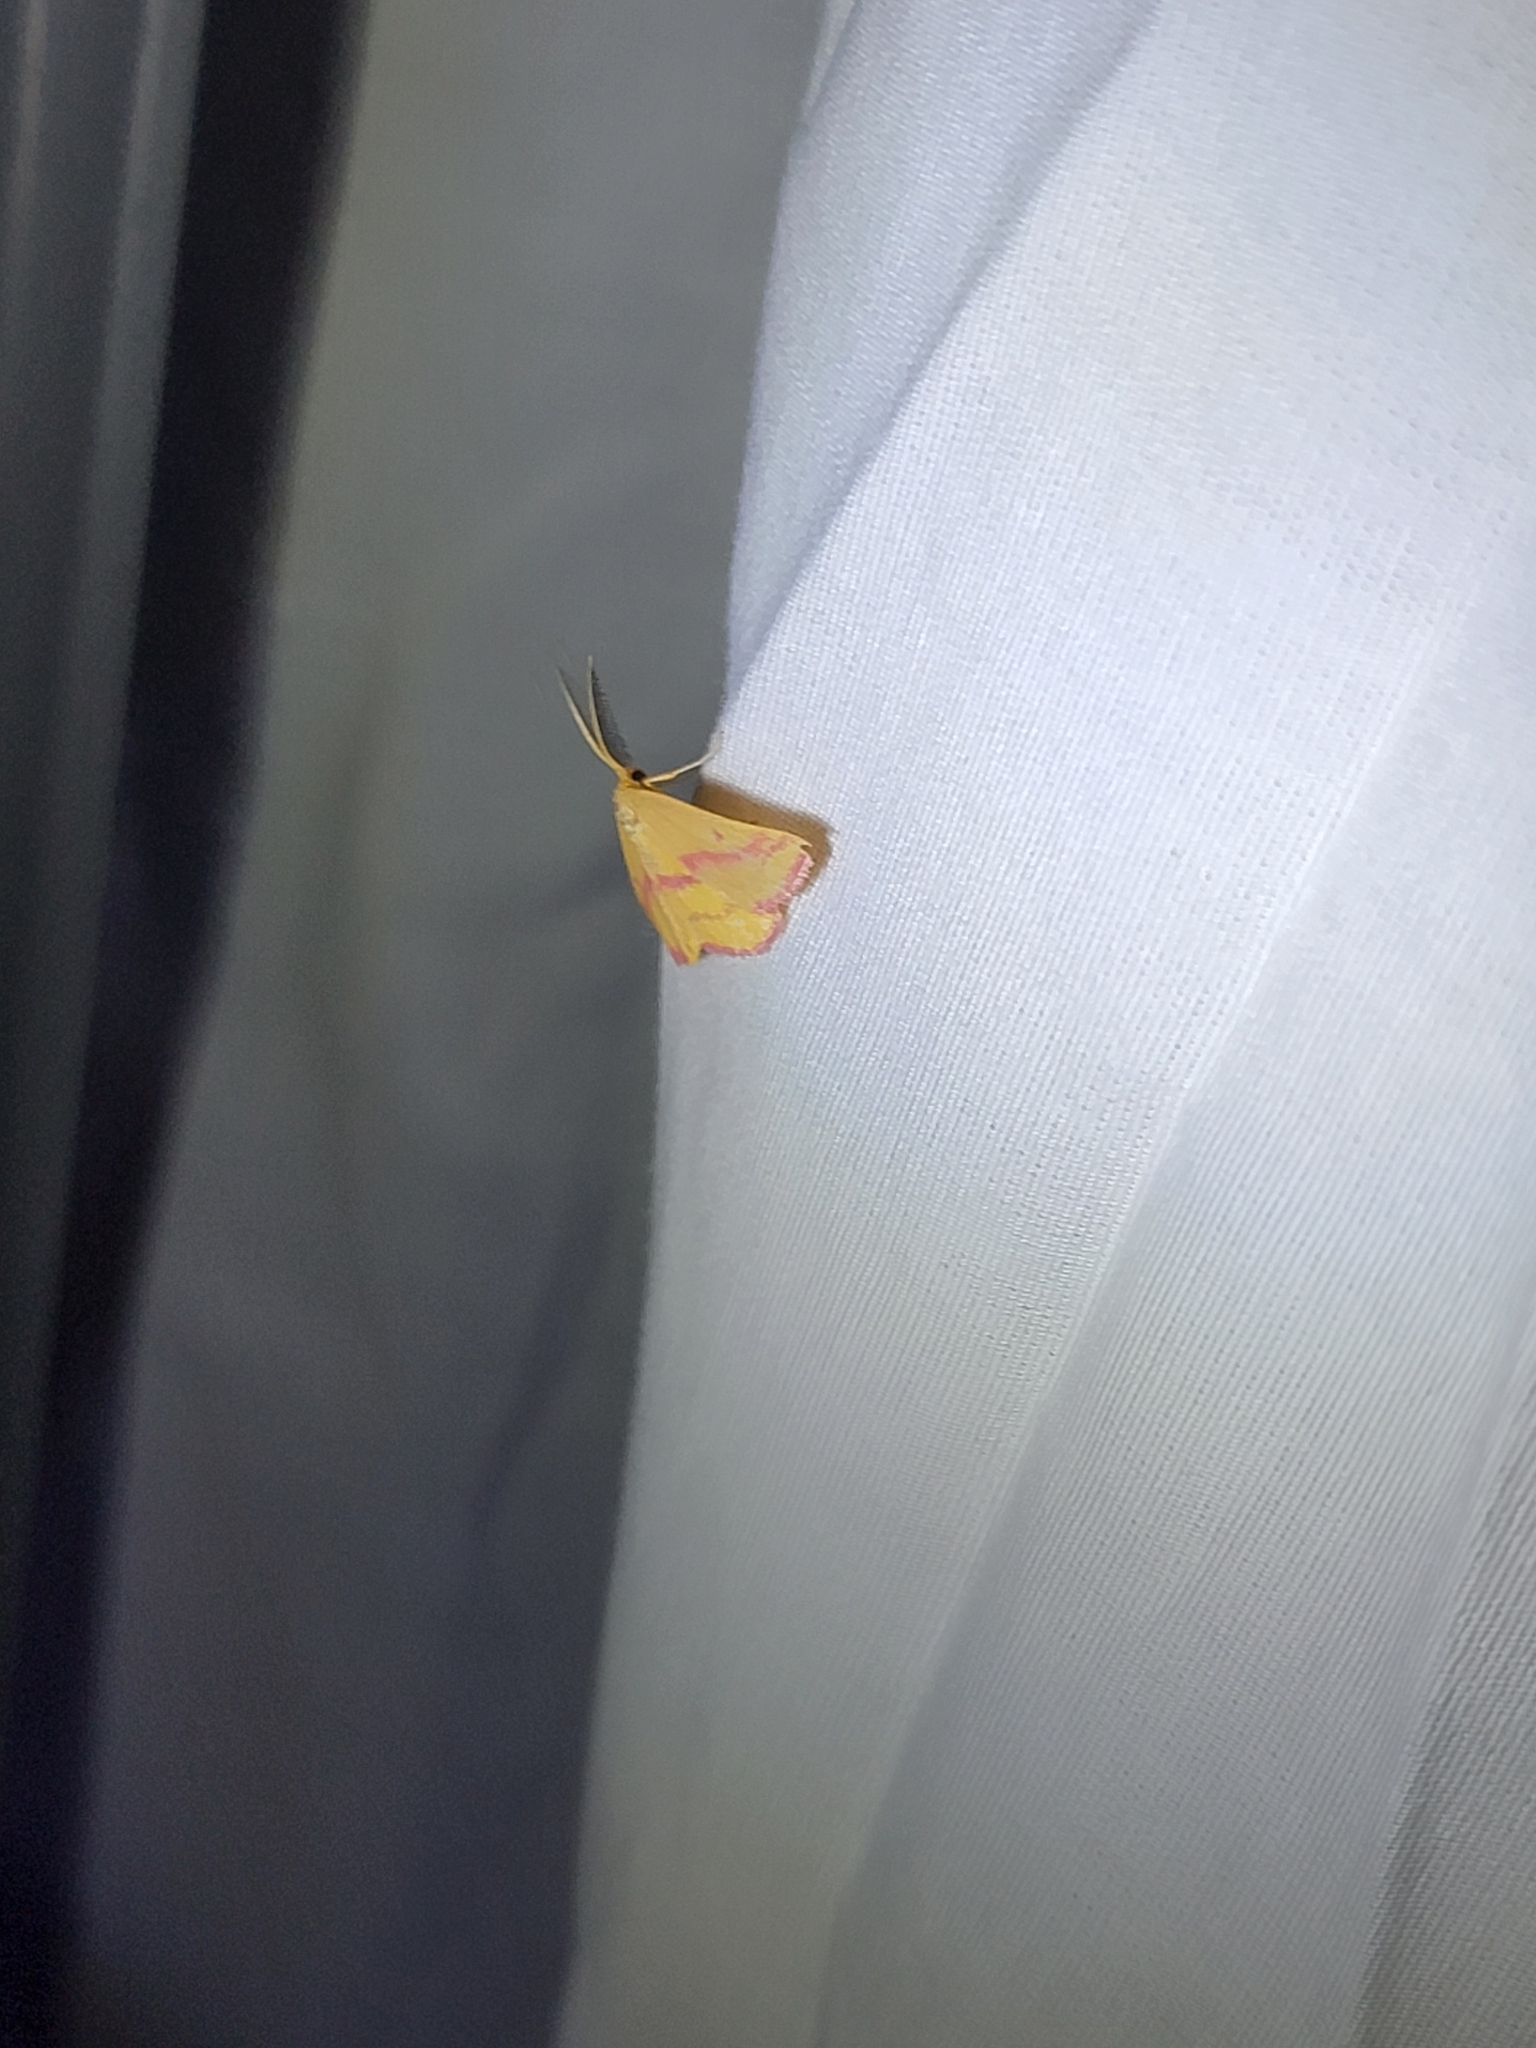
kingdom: Animalia
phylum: Arthropoda
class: Insecta
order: Lepidoptera
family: Geometridae
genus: Haematopis
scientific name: Haematopis grataria
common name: Chickweed geometer
